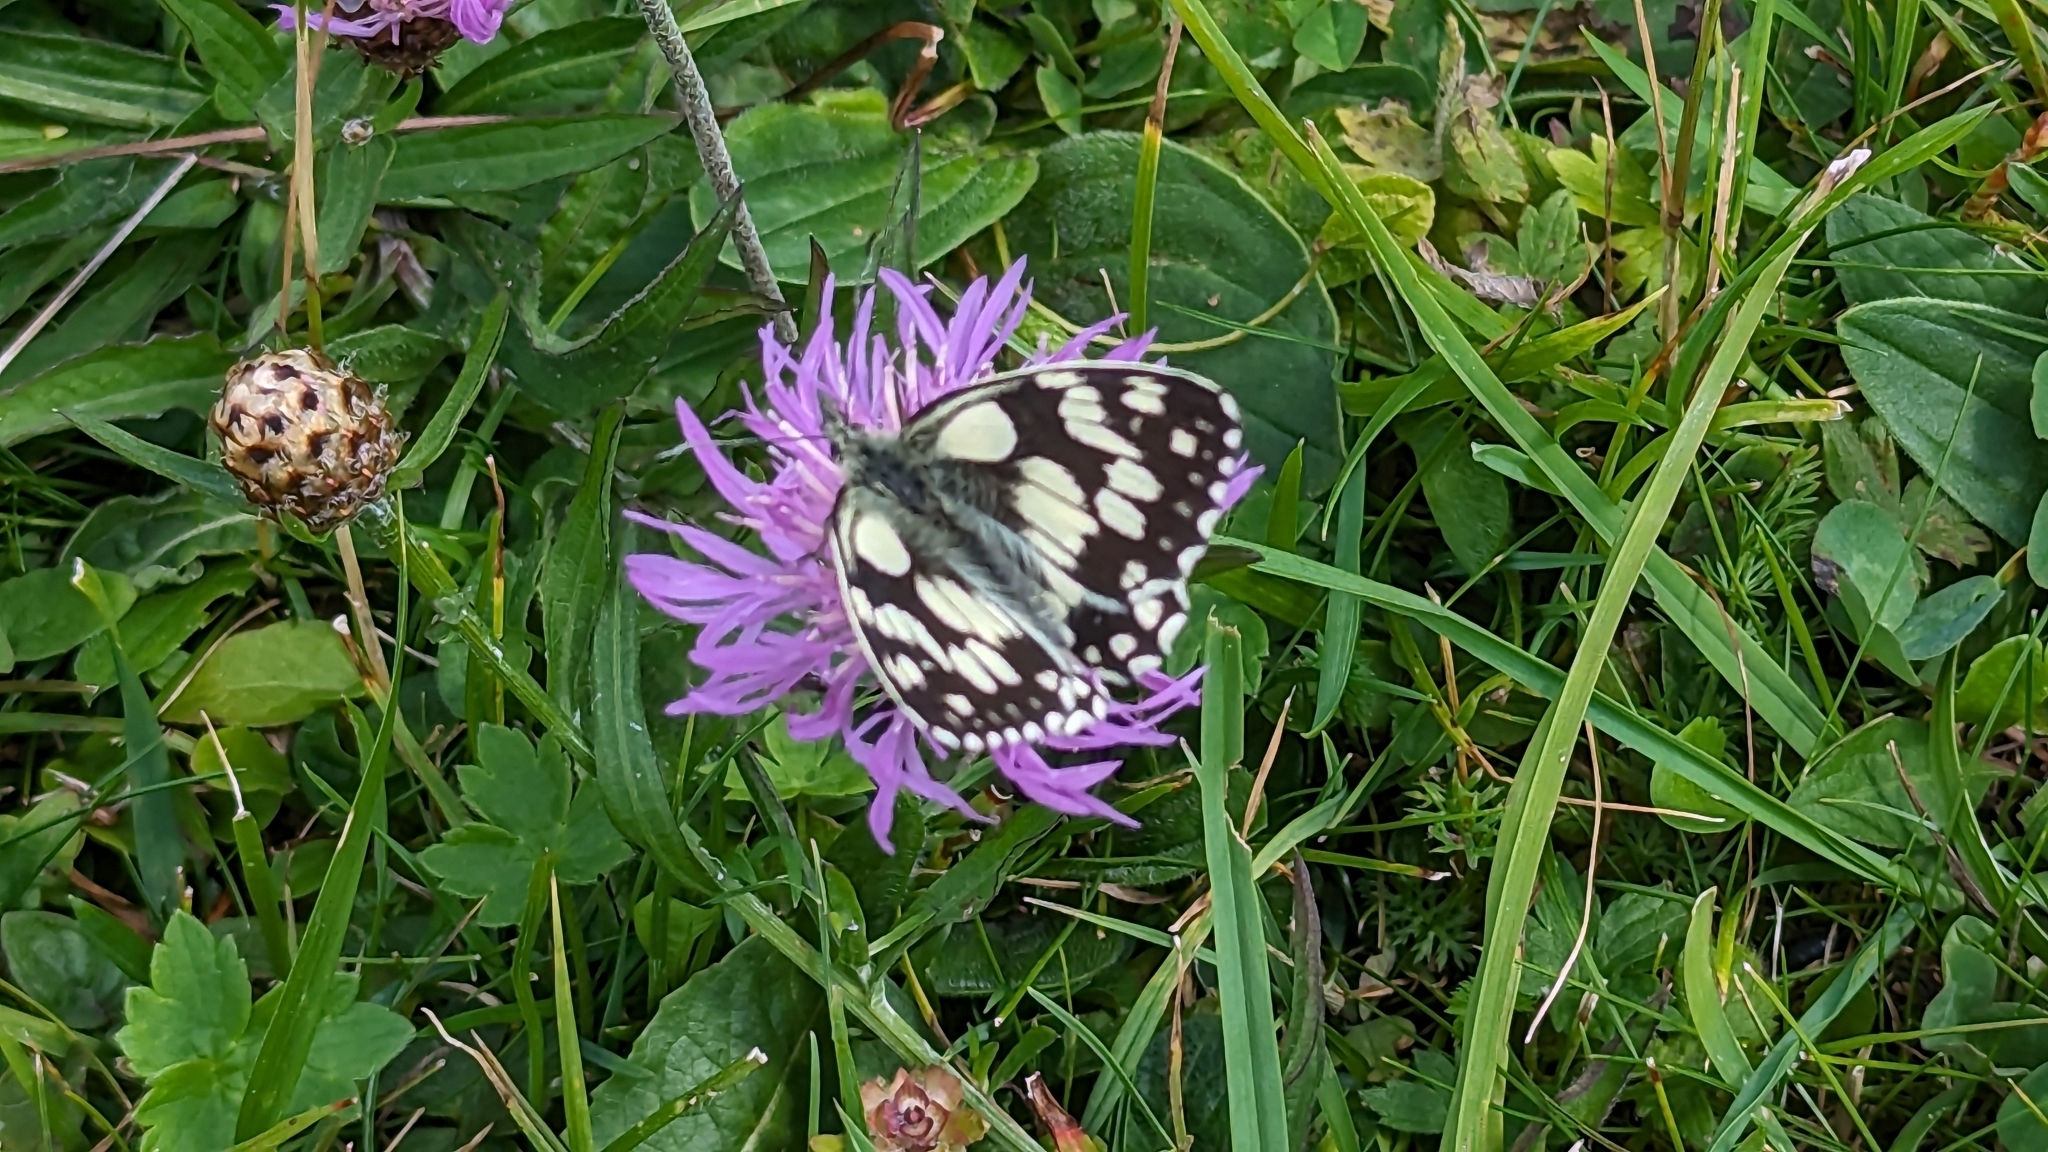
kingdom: Animalia
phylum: Arthropoda
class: Insecta
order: Lepidoptera
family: Nymphalidae
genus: Melanargia
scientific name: Melanargia galathea
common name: Marbled white
